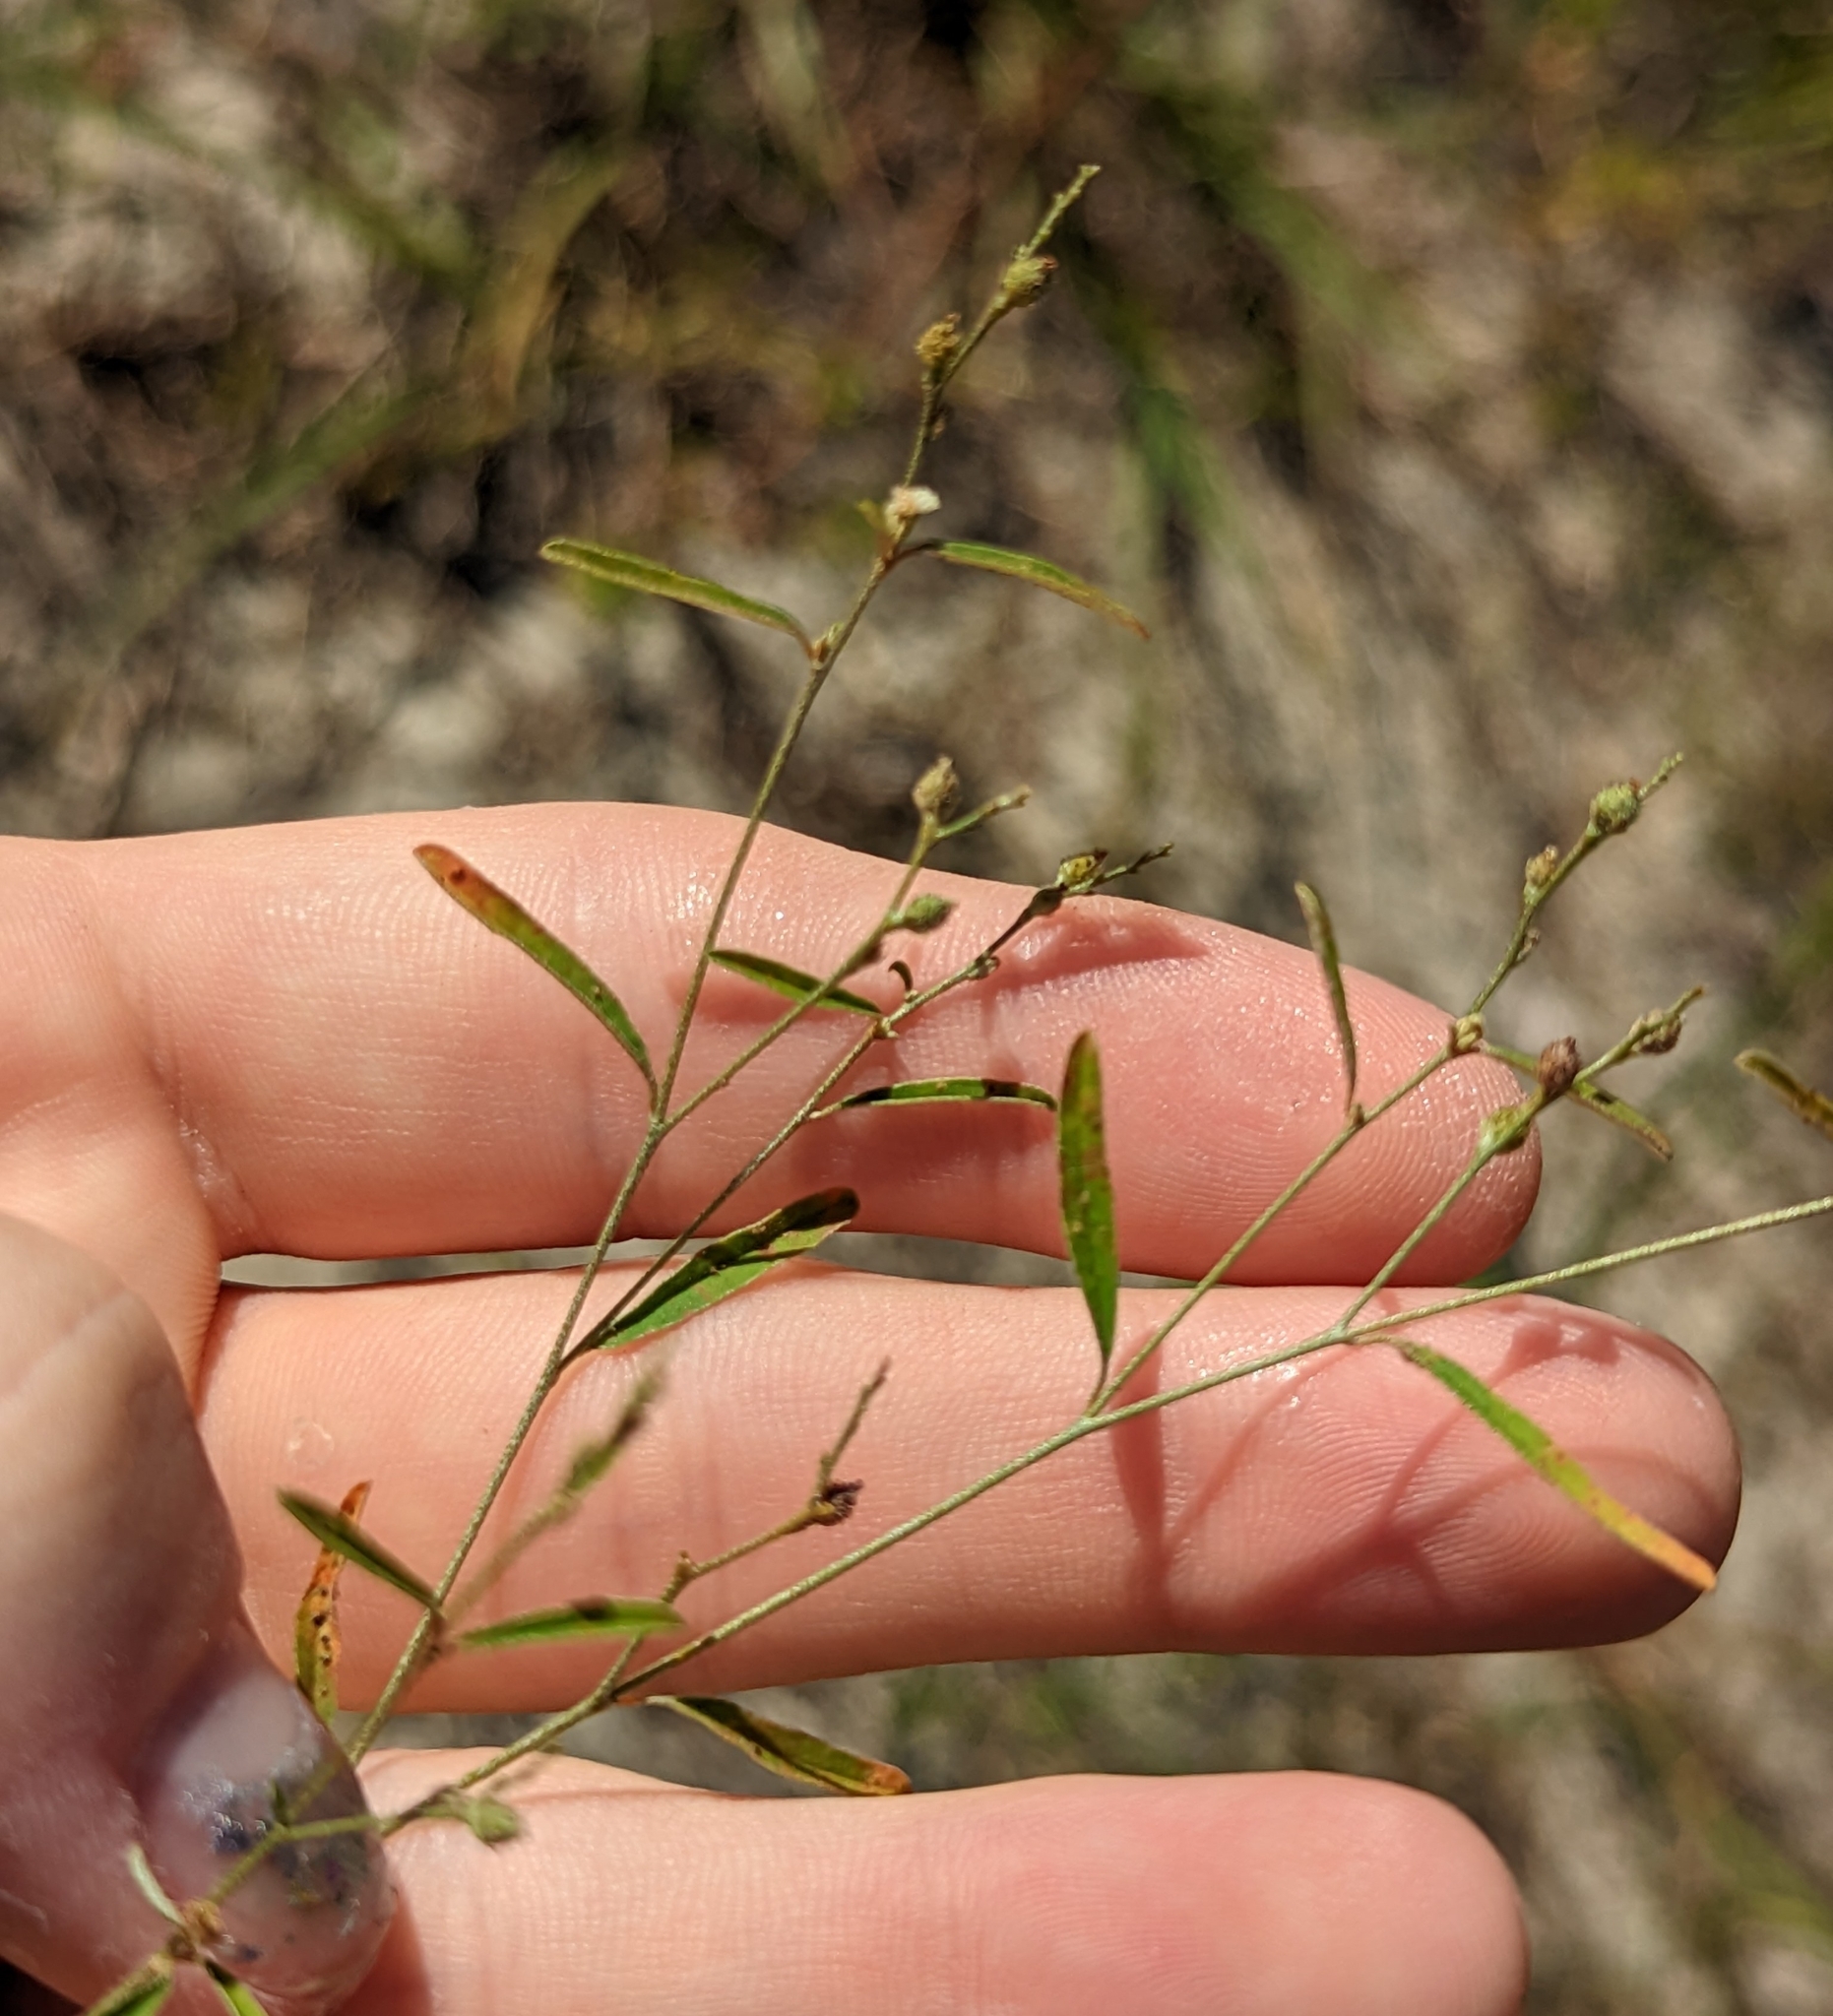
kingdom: Plantae
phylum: Tracheophyta
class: Magnoliopsida
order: Malpighiales
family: Euphorbiaceae
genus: Croton
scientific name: Croton michauxii
